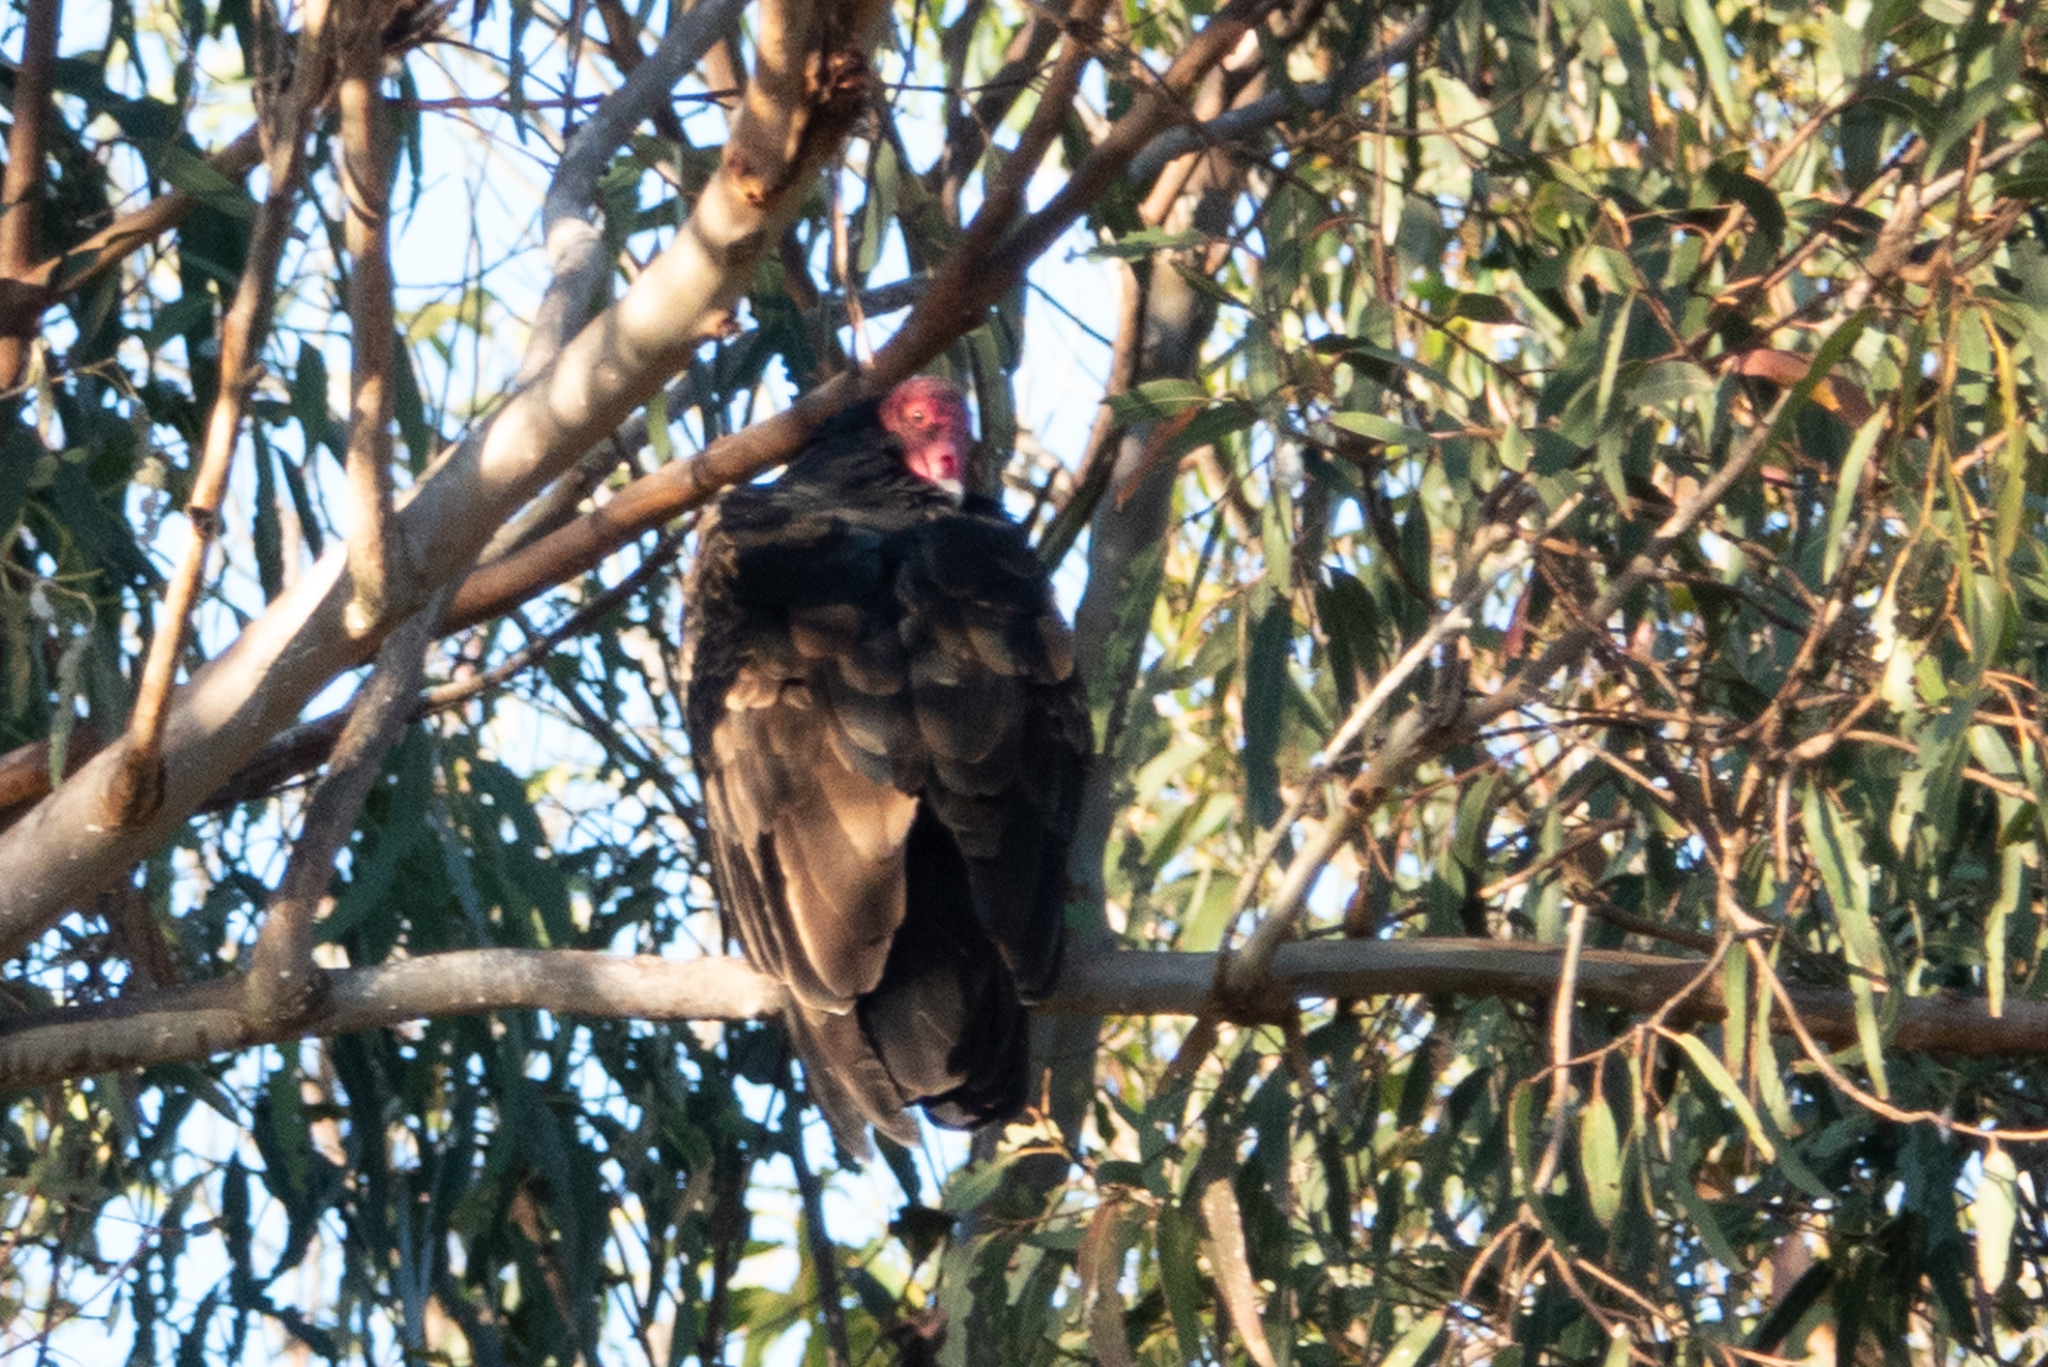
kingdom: Animalia
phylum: Chordata
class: Aves
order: Accipitriformes
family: Cathartidae
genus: Cathartes
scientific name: Cathartes aura
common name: Turkey vulture
